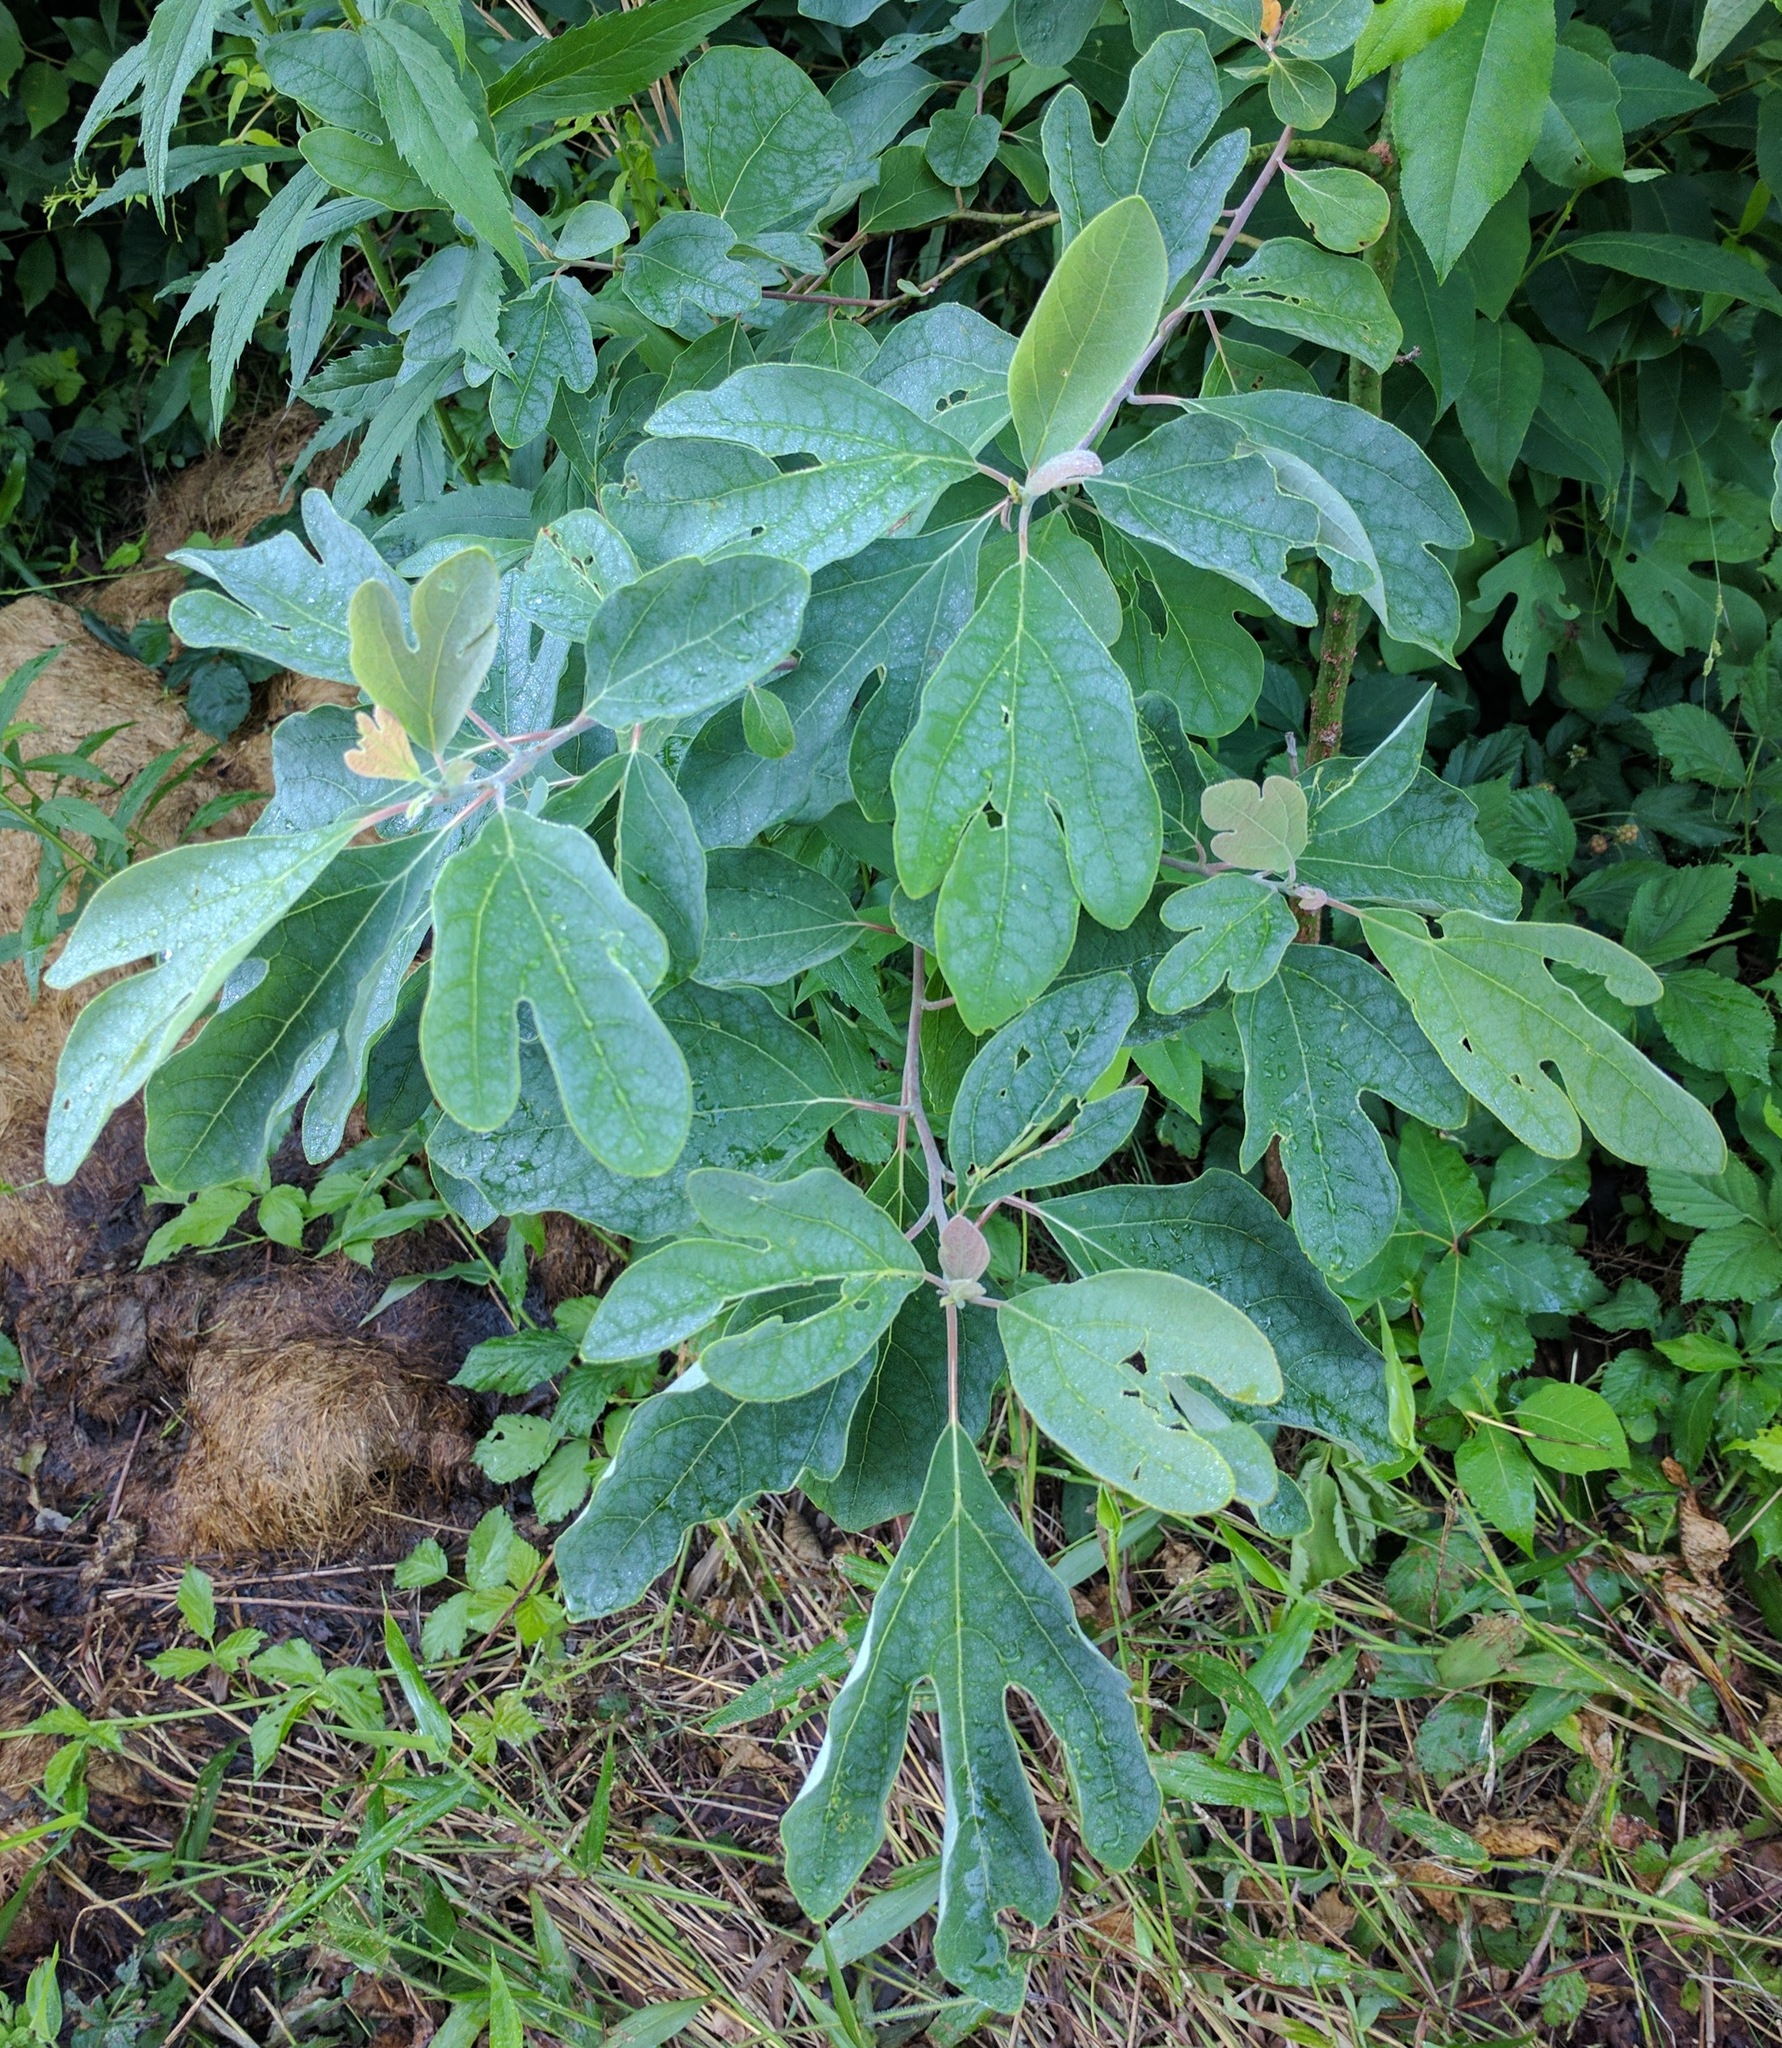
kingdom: Plantae
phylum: Tracheophyta
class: Magnoliopsida
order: Laurales
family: Lauraceae
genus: Sassafras
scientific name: Sassafras albidum
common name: Sassafras
